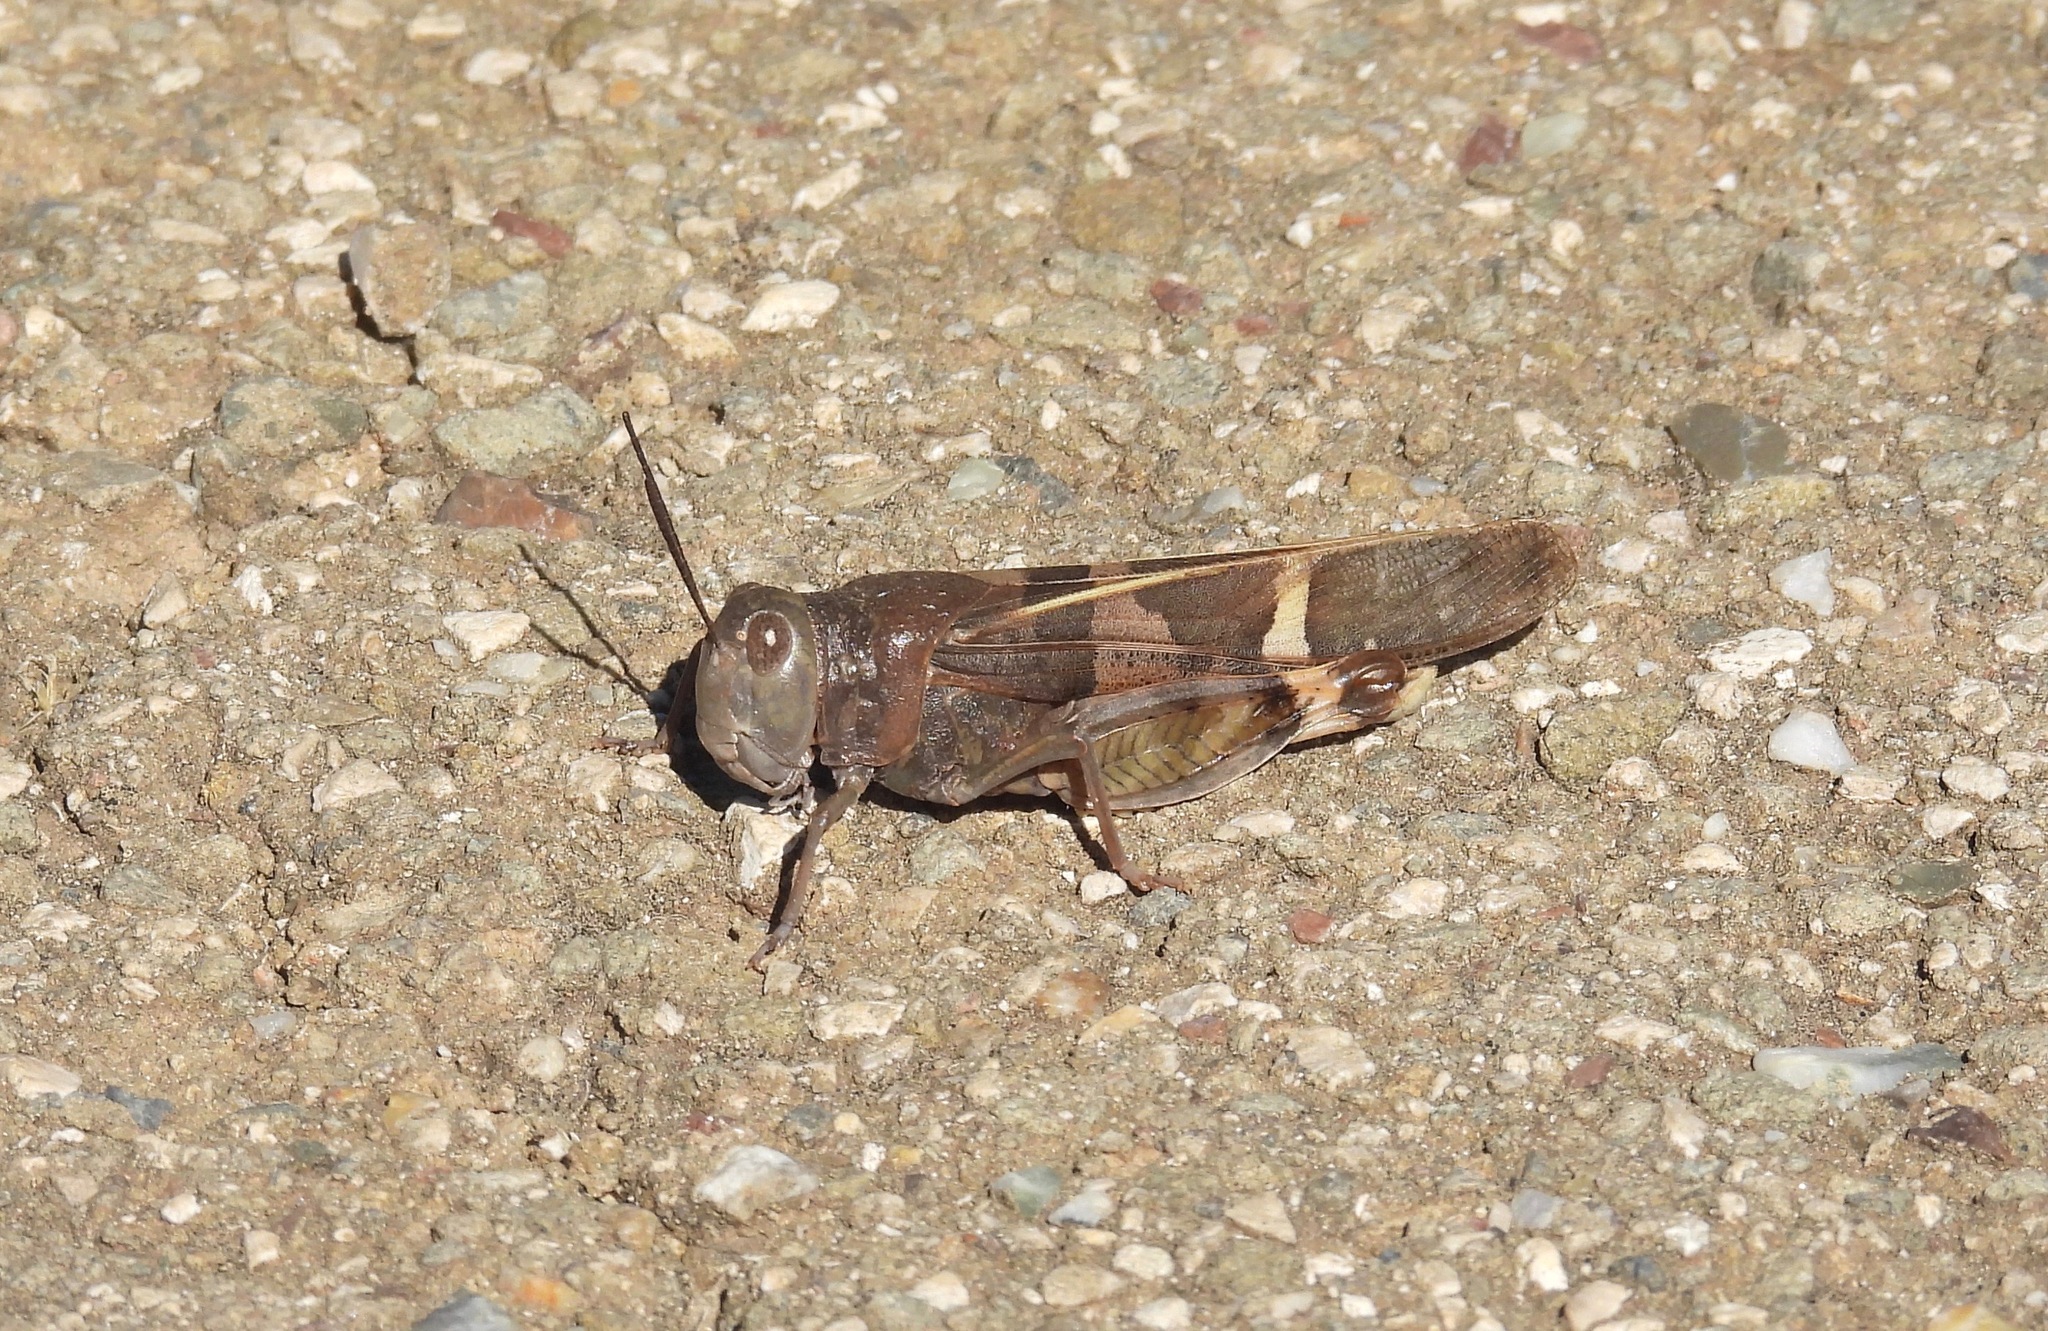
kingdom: Animalia
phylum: Arthropoda
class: Insecta
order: Orthoptera
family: Acrididae
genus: Leprus
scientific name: Leprus wheelerii
